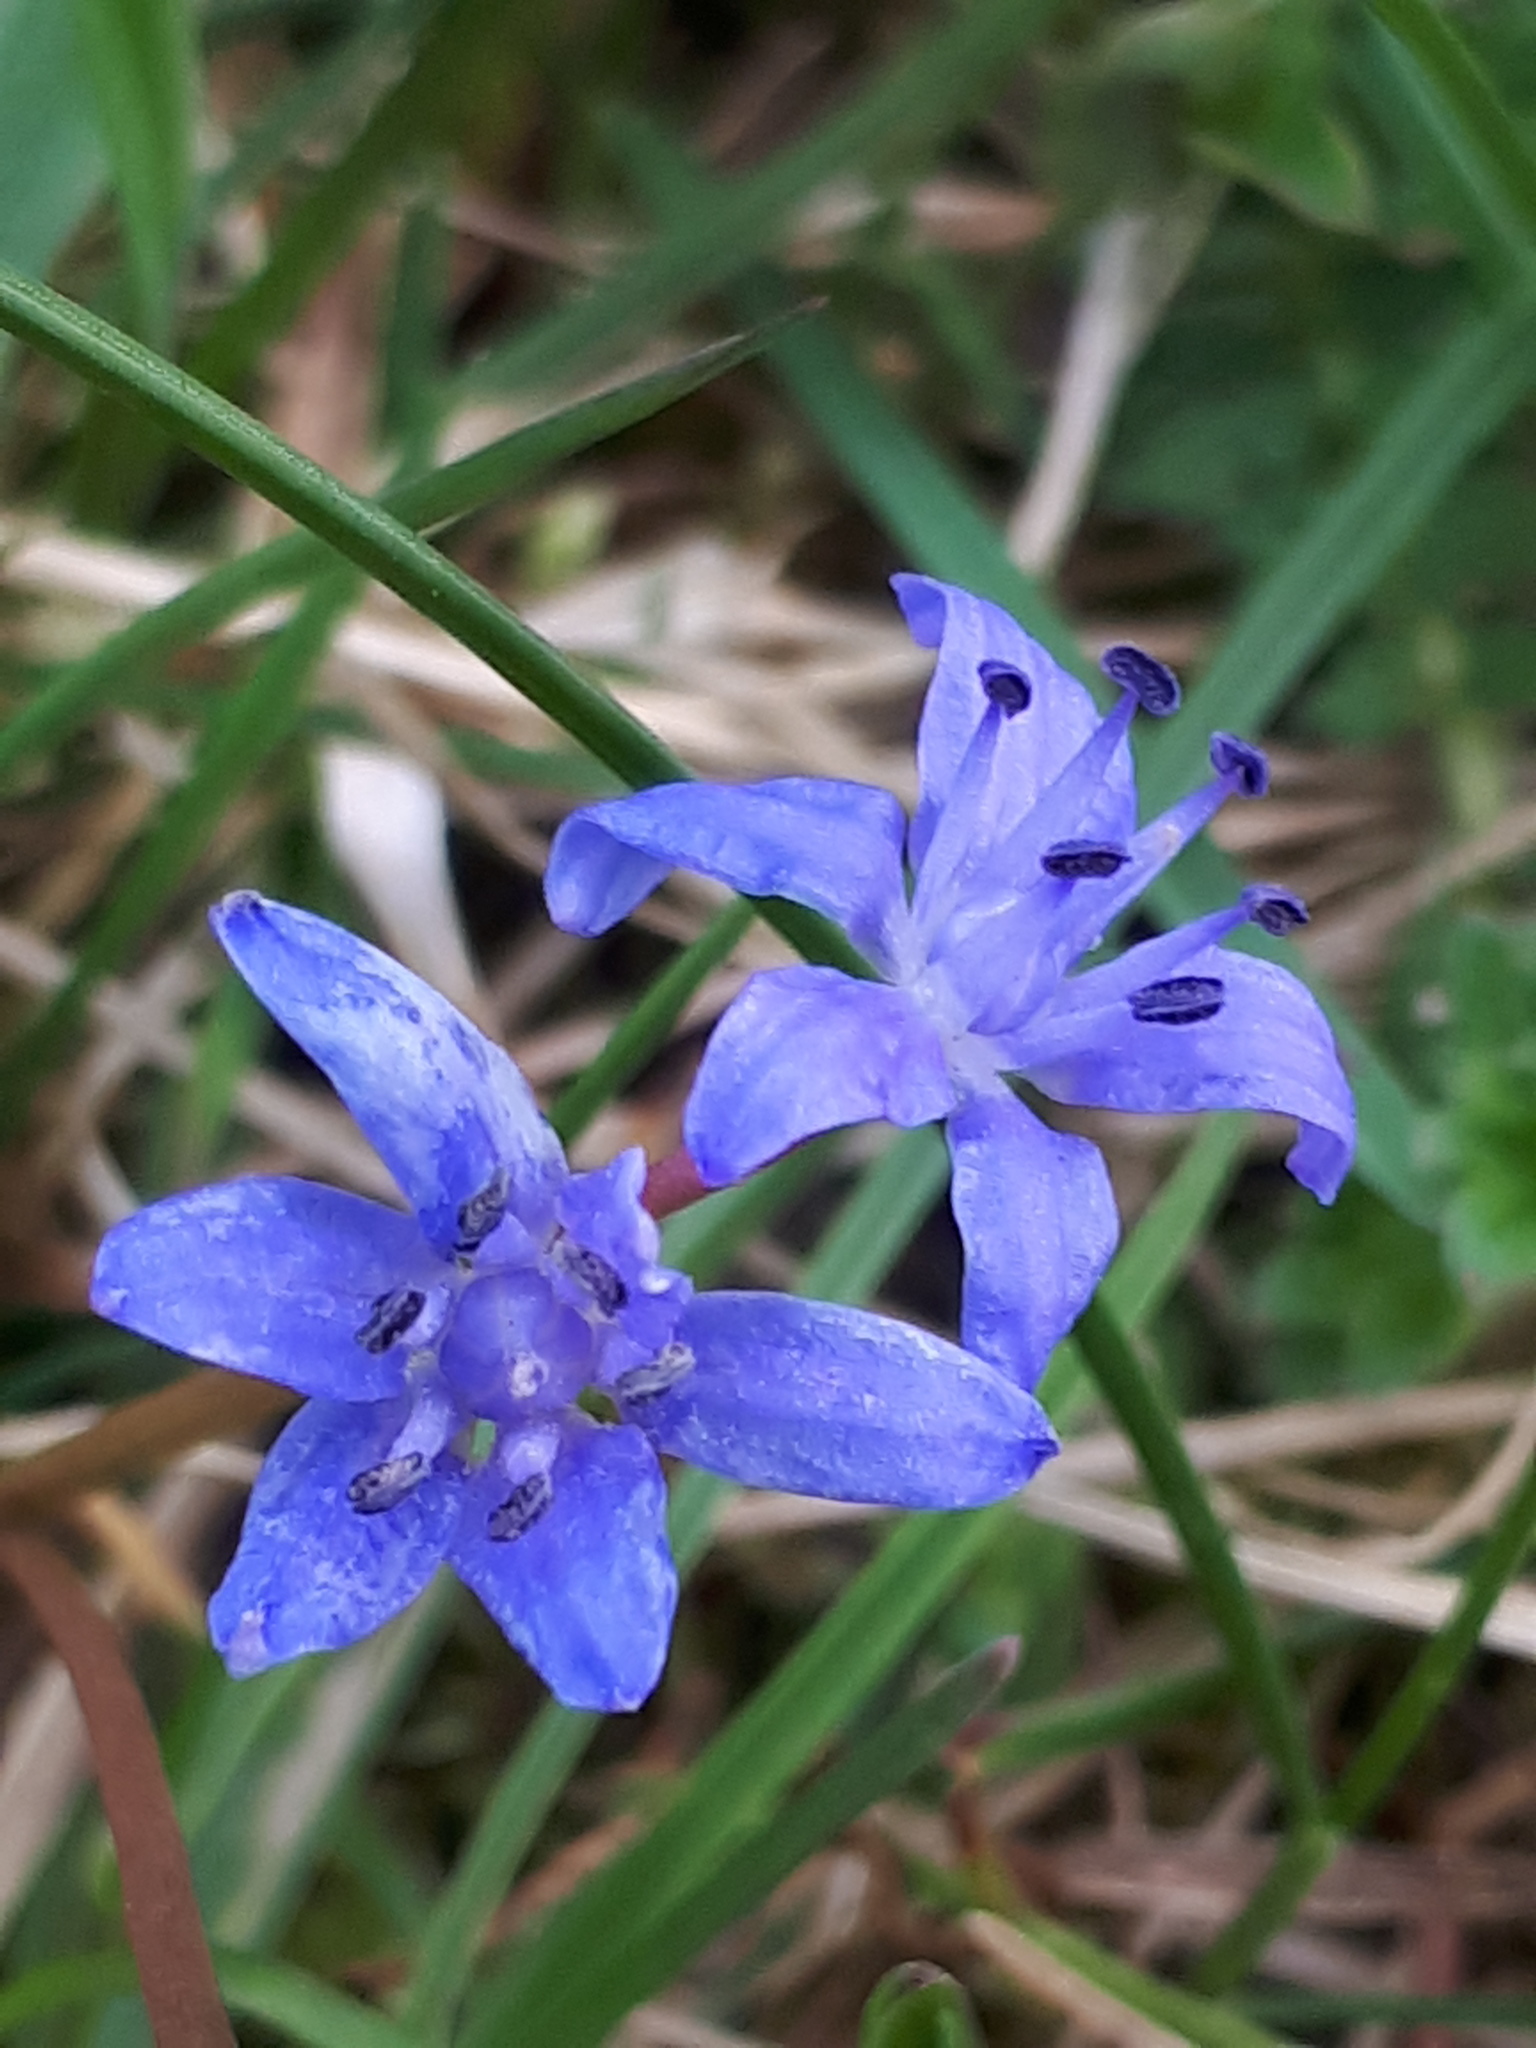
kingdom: Plantae
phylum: Tracheophyta
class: Liliopsida
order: Asparagales
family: Asparagaceae
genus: Scilla
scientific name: Scilla bifolia
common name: Alpine squill
